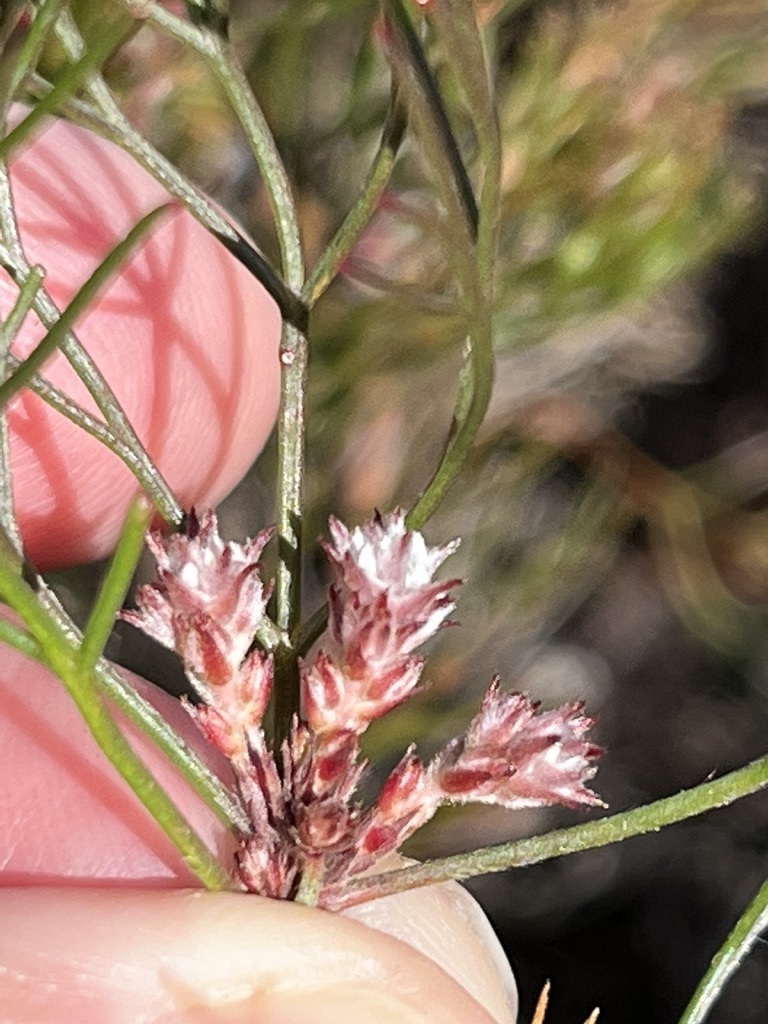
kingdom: Plantae
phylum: Tracheophyta
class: Magnoliopsida
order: Proteales
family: Proteaceae
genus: Serruria
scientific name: Serruria fasciflora
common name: Common pin spiderhead
